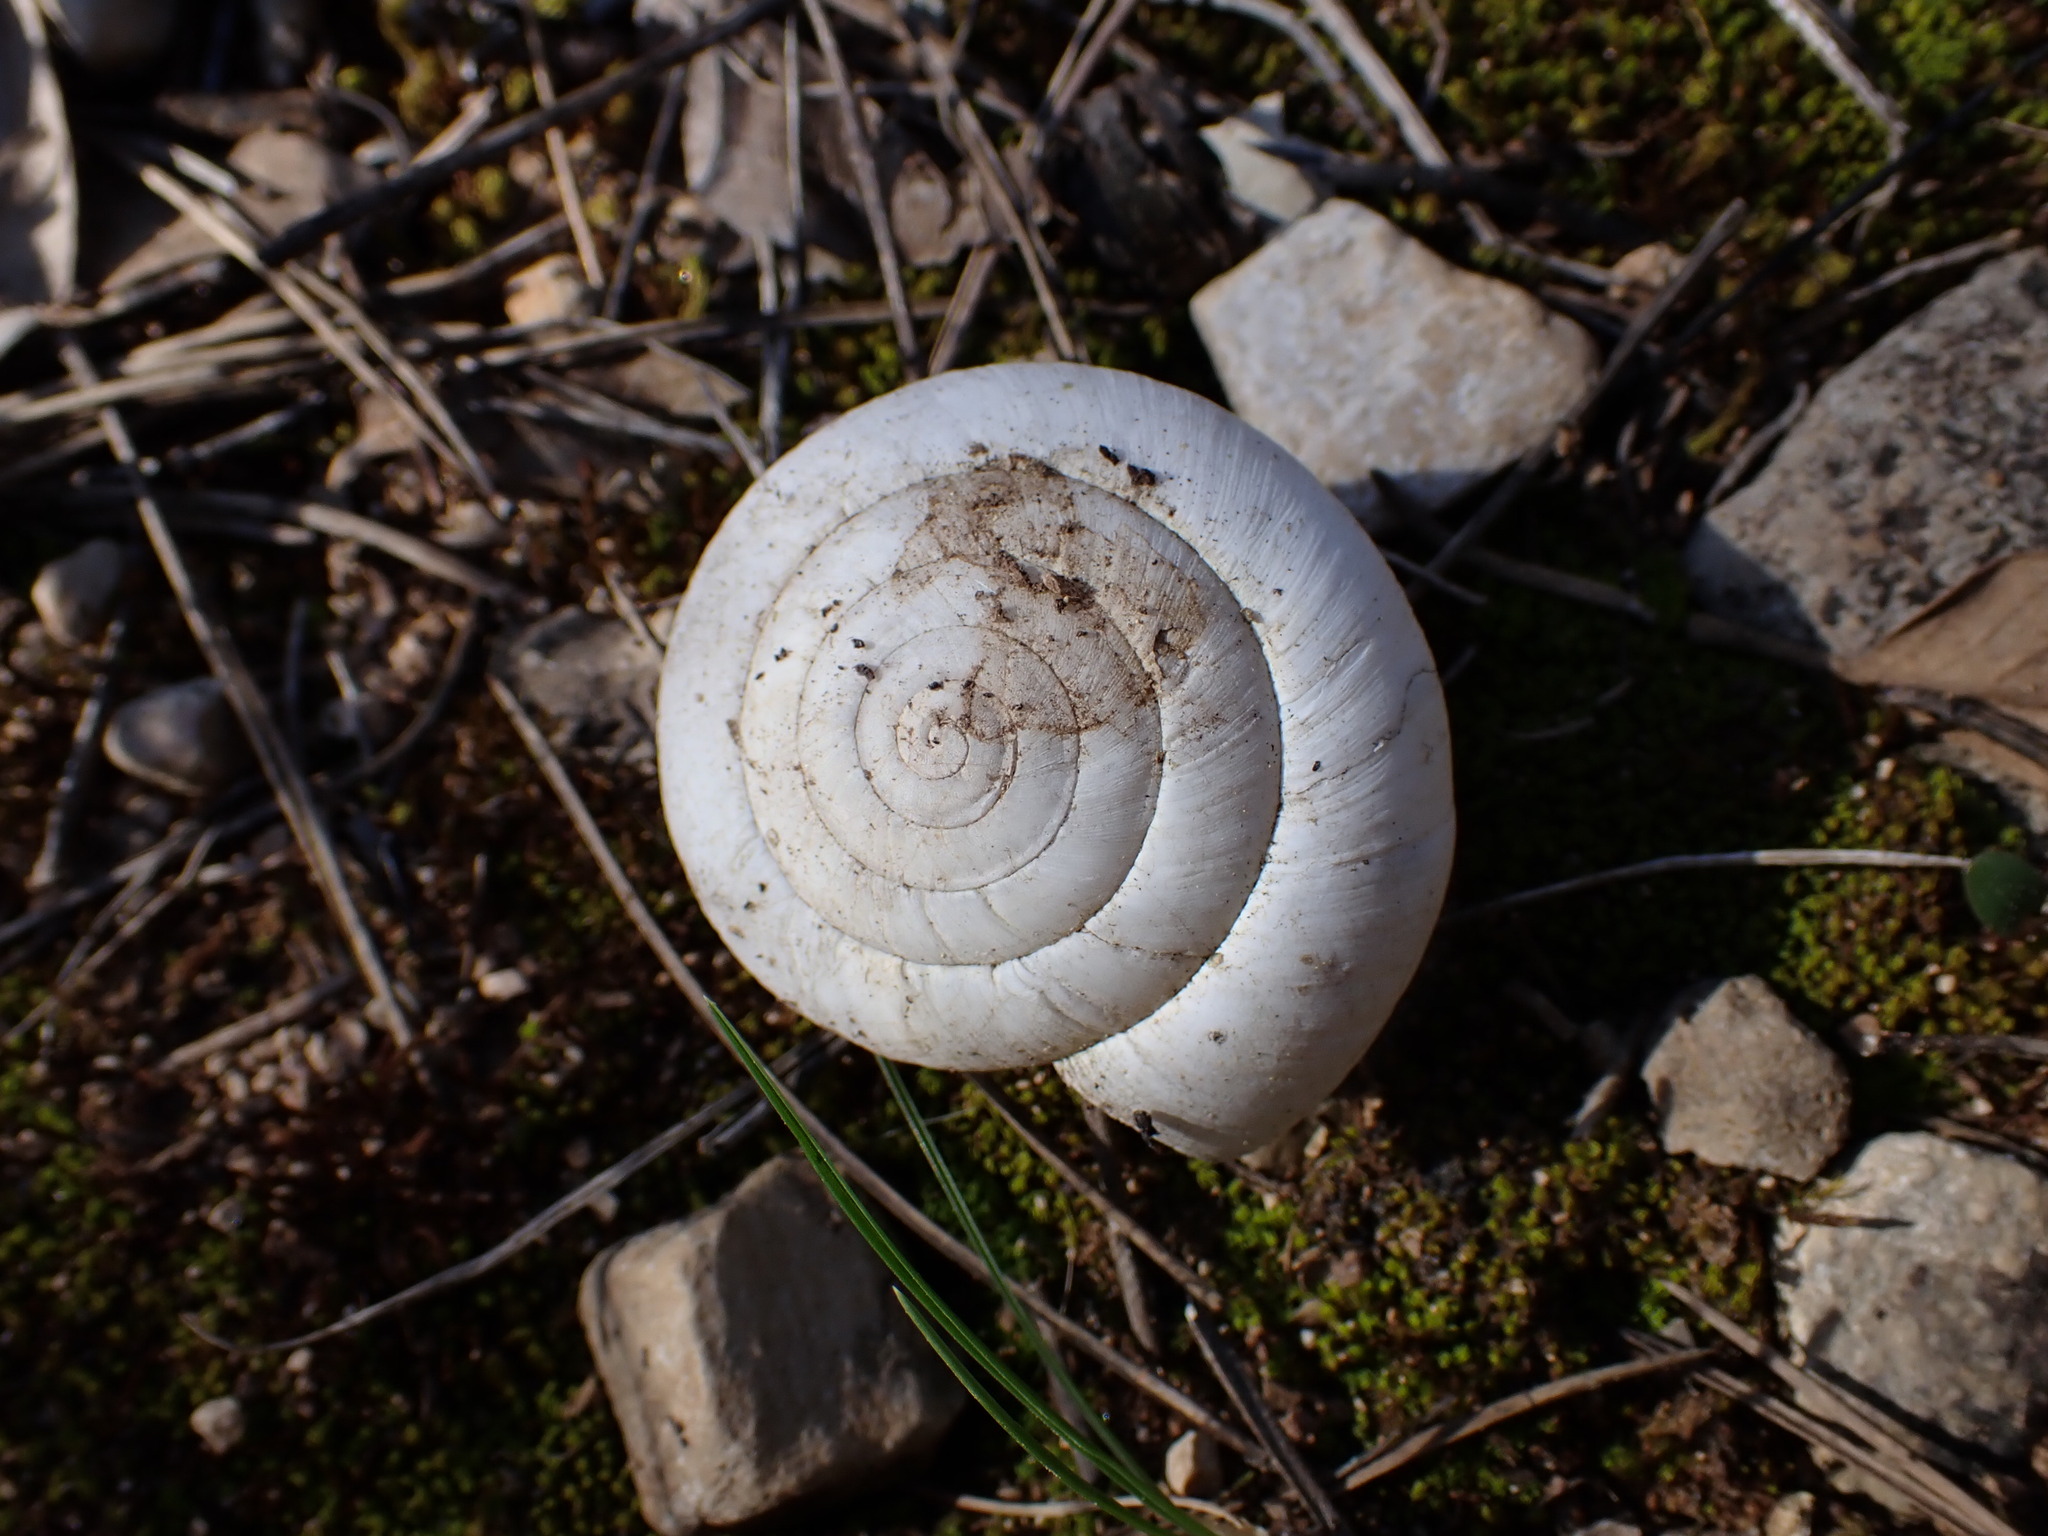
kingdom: Animalia
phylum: Mollusca
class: Gastropoda
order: Stylommatophora
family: Zonitidae
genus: Zonites
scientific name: Zonites algirus
